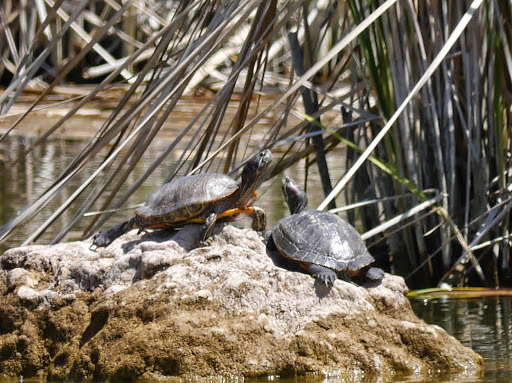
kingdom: Animalia
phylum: Chordata
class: Testudines
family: Emydidae
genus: Trachemys
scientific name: Trachemys scripta
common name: Slider
